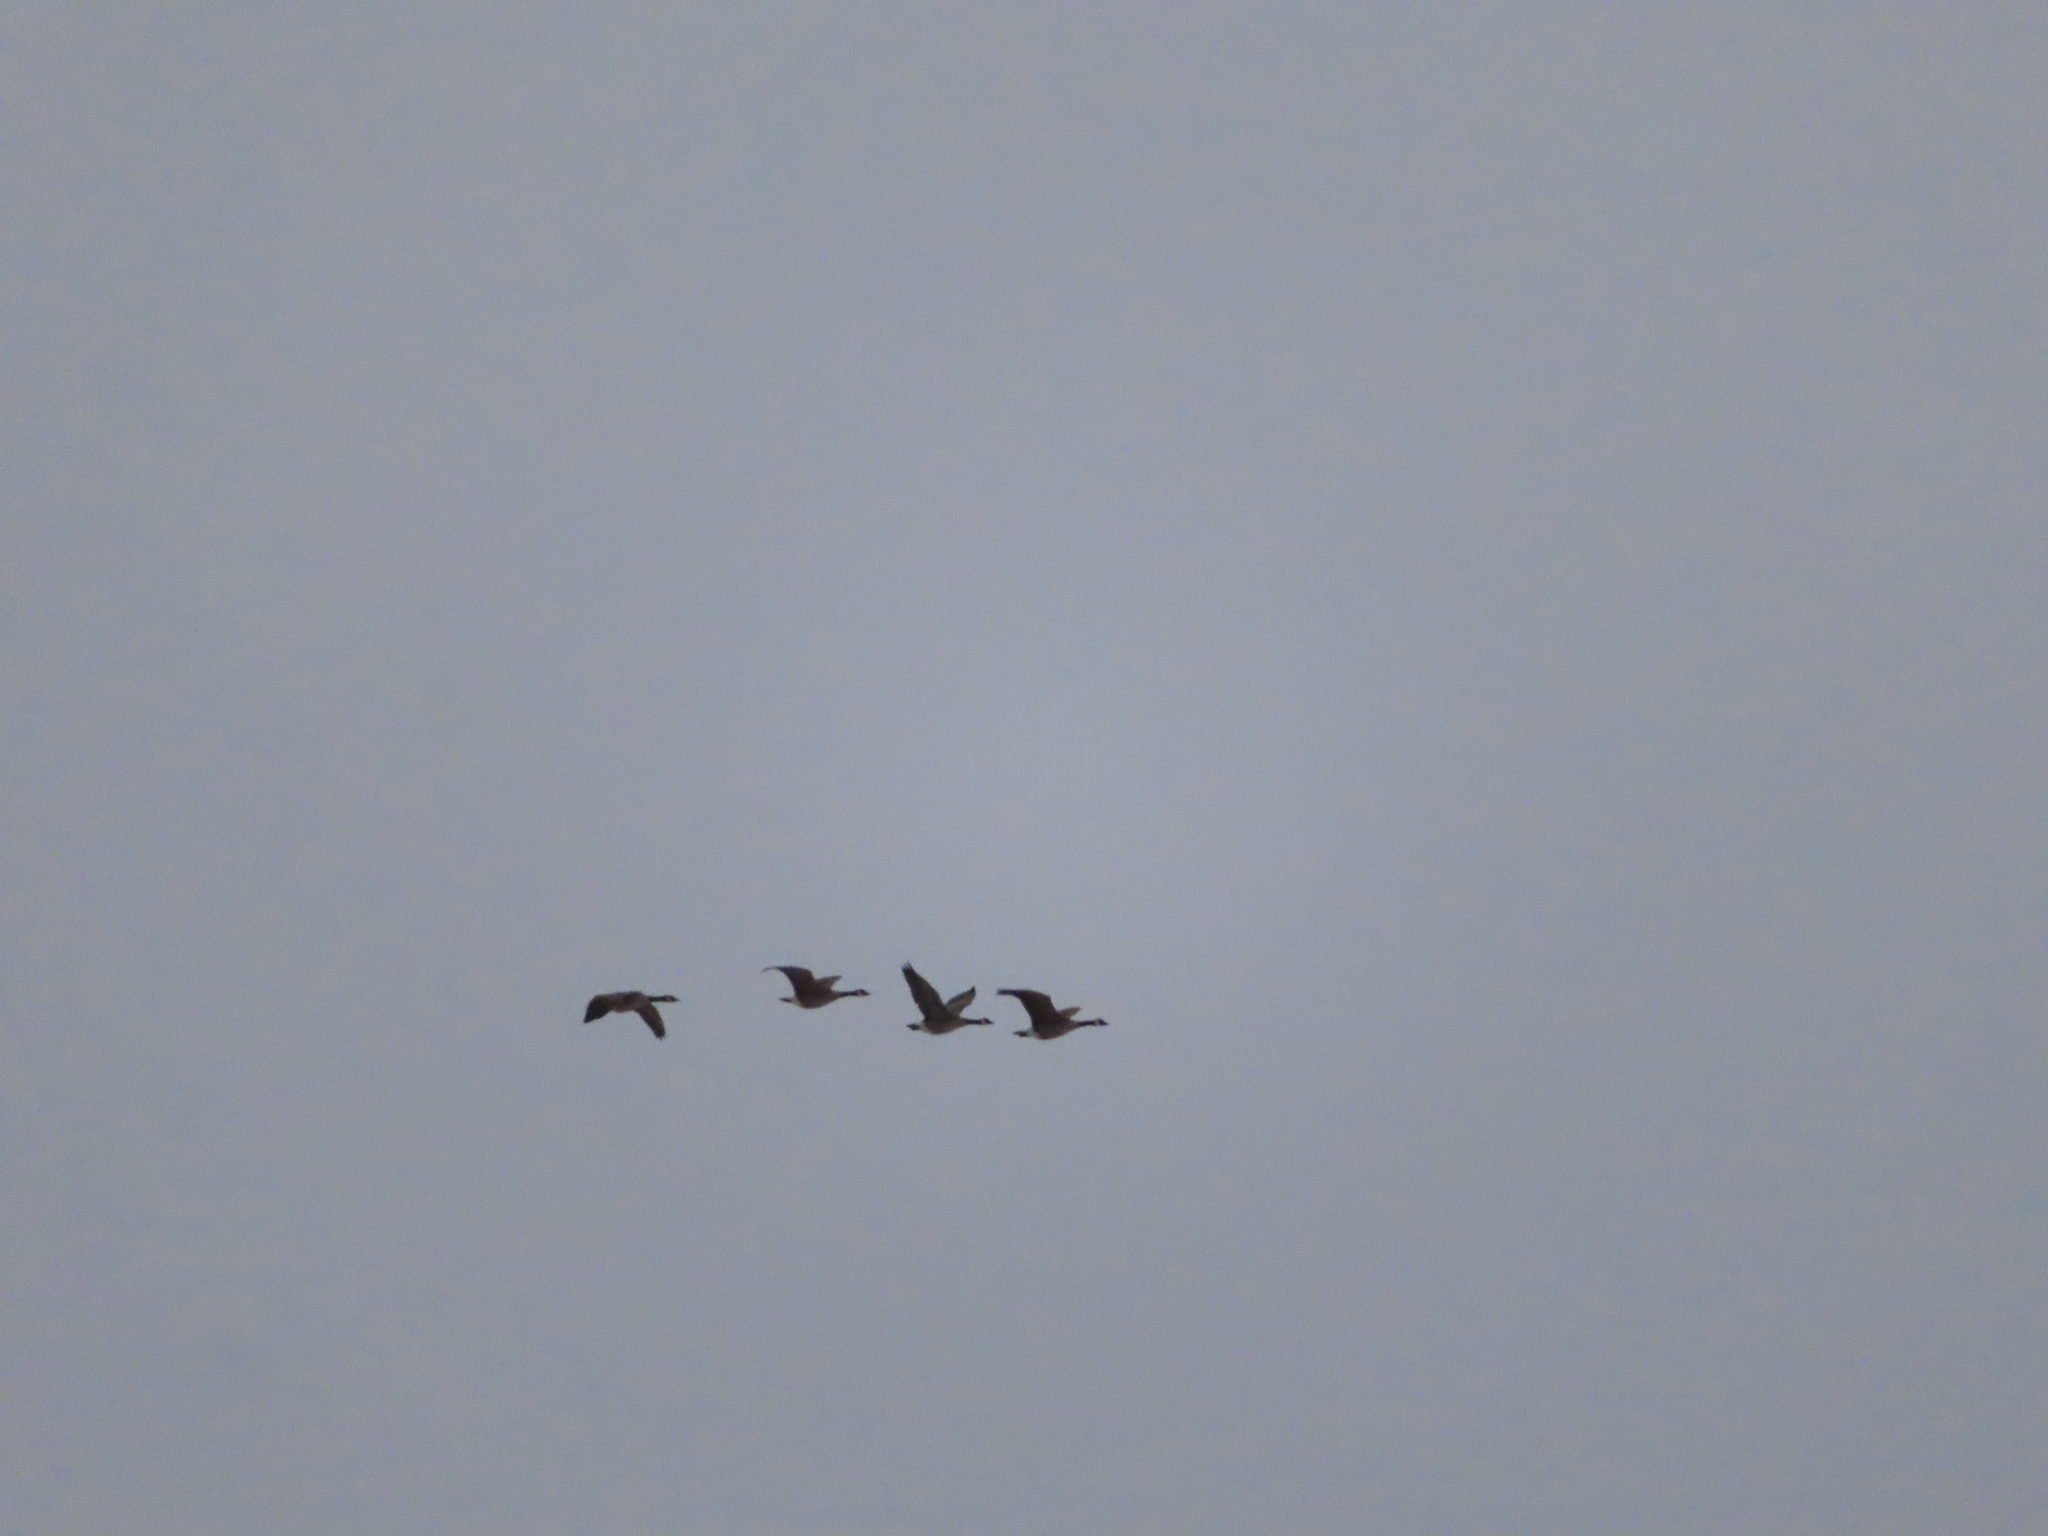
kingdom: Animalia
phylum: Chordata
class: Aves
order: Anseriformes
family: Anatidae
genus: Branta
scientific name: Branta canadensis
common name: Canada goose
